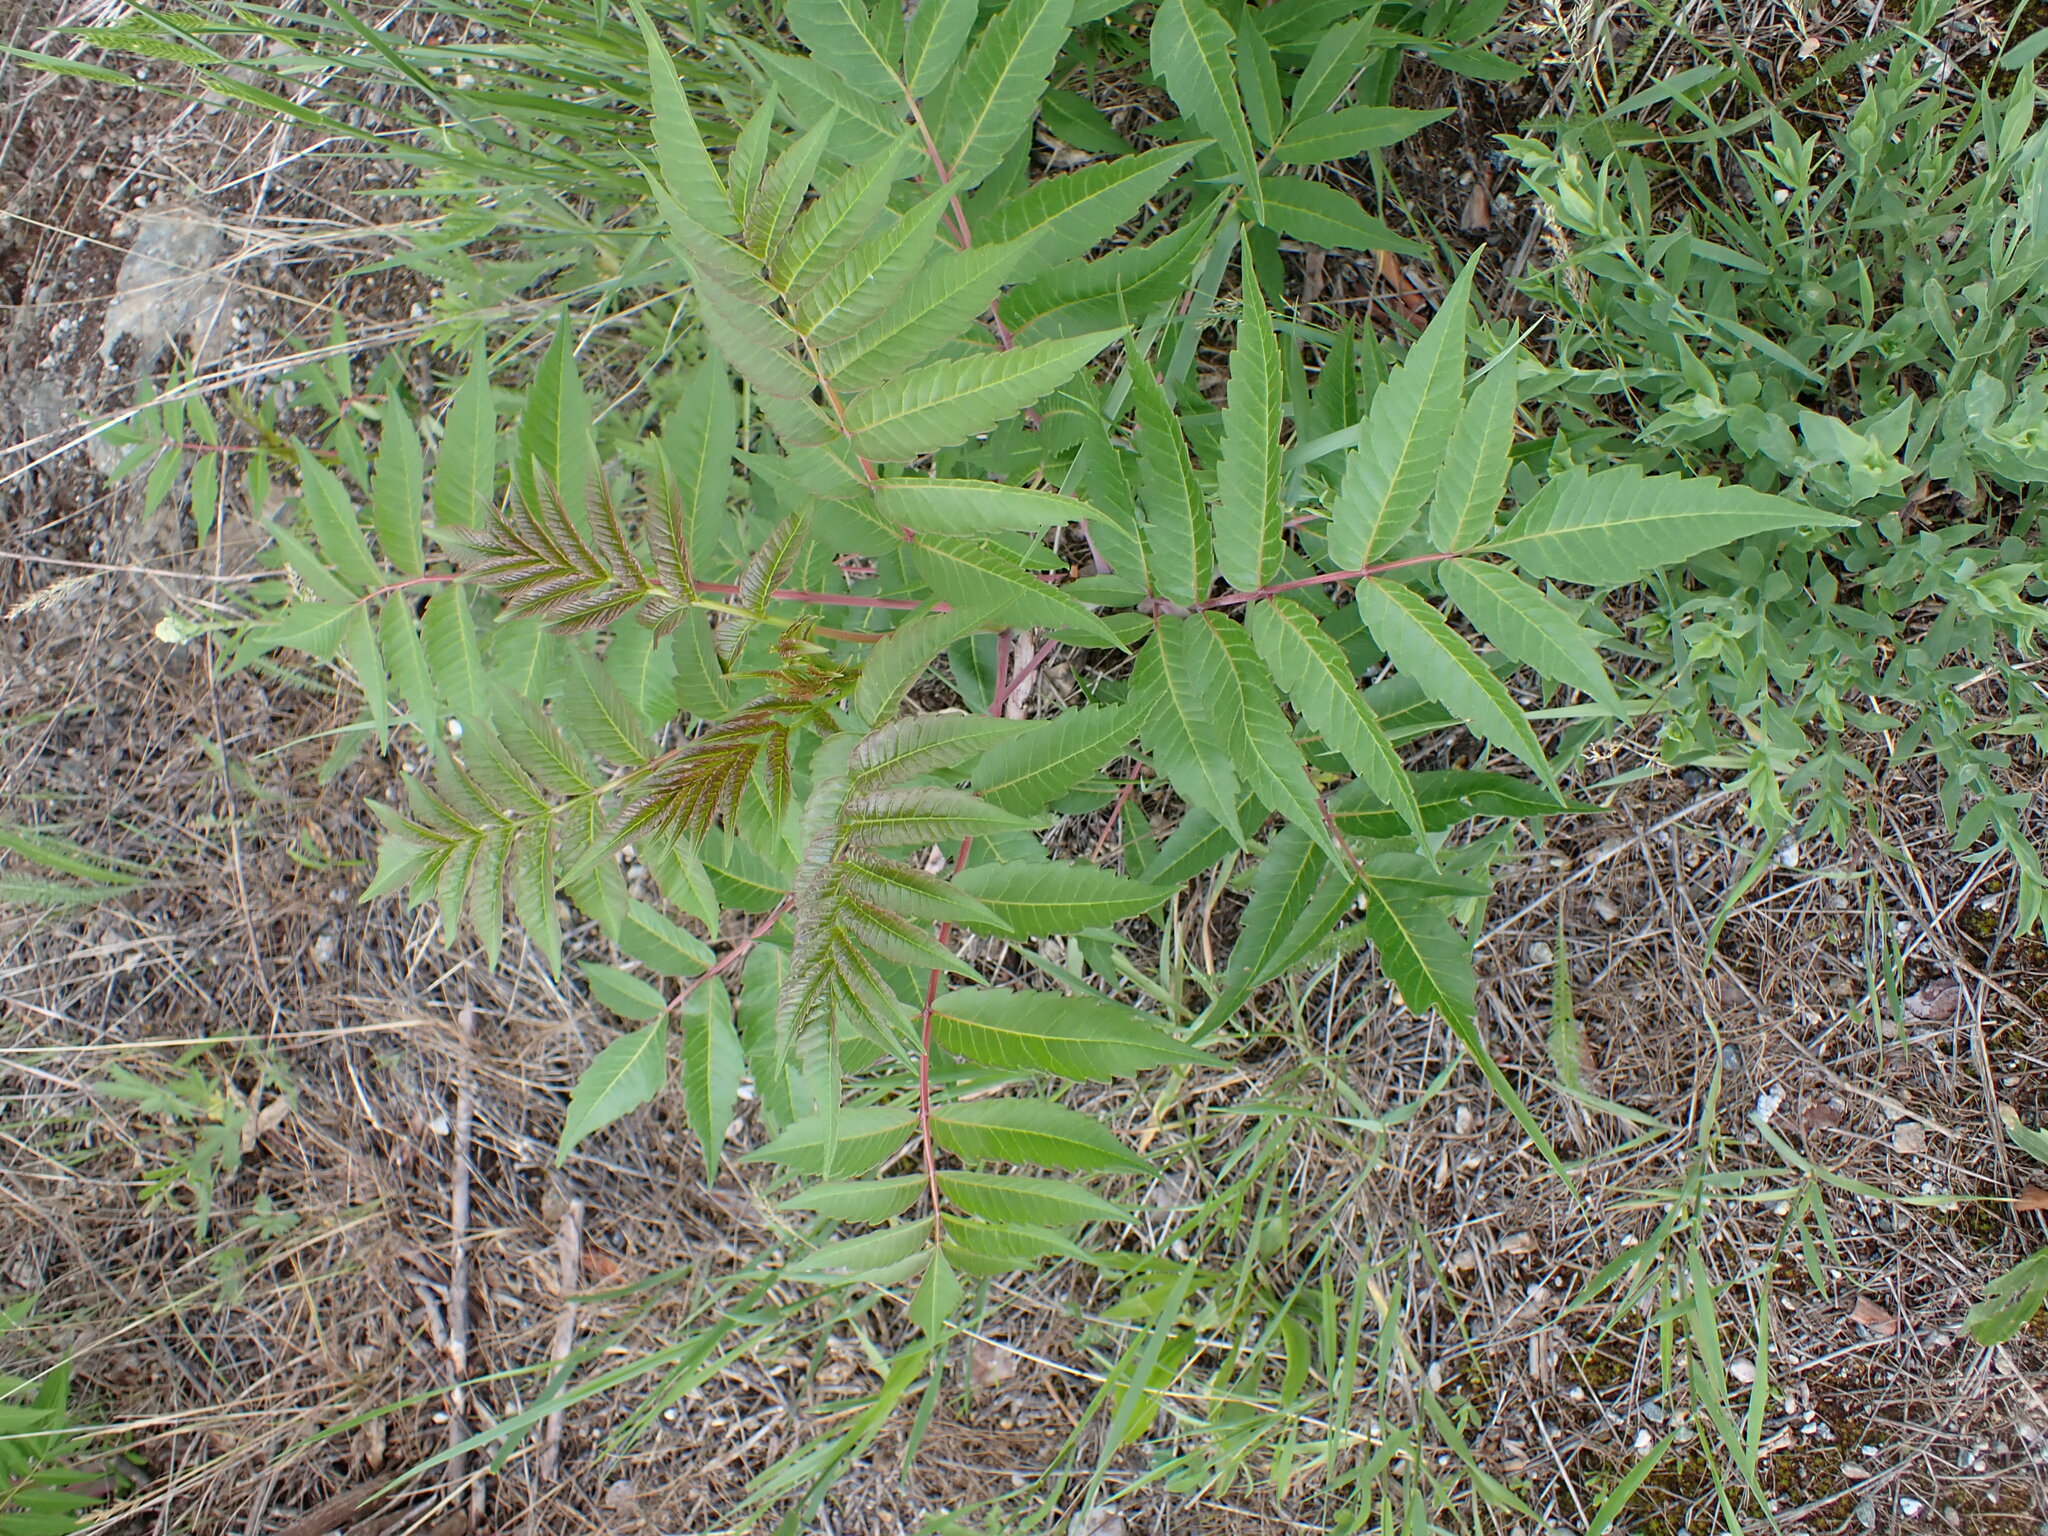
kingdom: Plantae
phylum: Tracheophyta
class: Magnoliopsida
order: Sapindales
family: Anacardiaceae
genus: Rhus
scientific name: Rhus glabra
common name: Scarlet sumac
